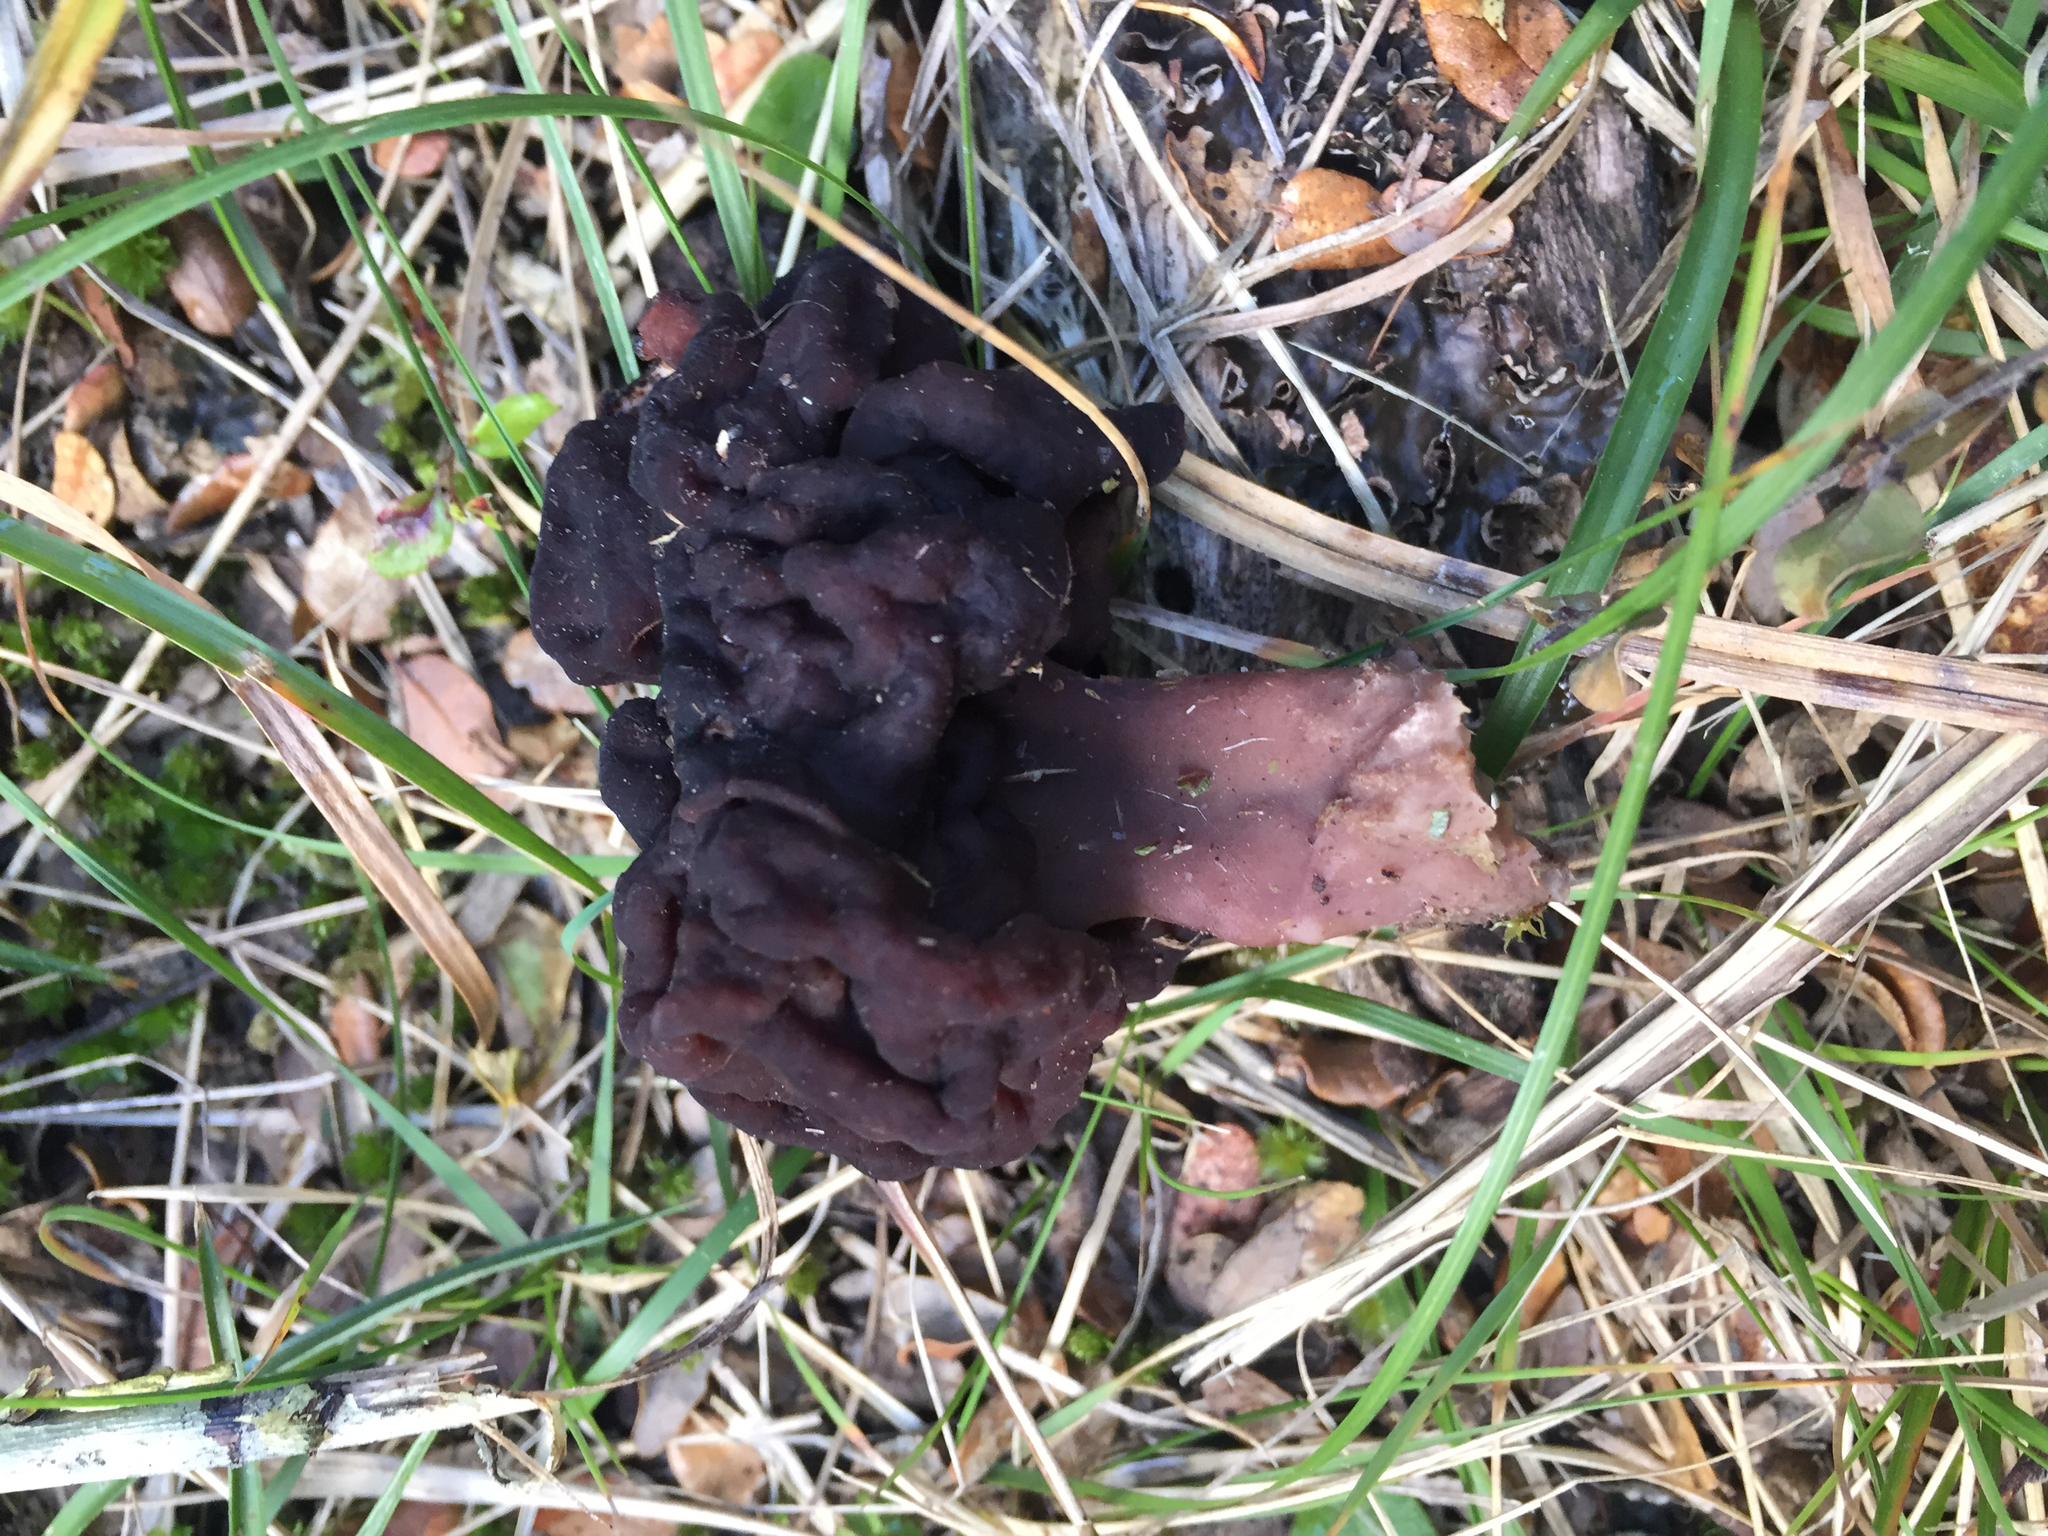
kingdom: Fungi
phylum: Ascomycota
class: Pezizomycetes
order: Pezizales
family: Discinaceae
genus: Gyromitra
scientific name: Gyromitra tasmanica
